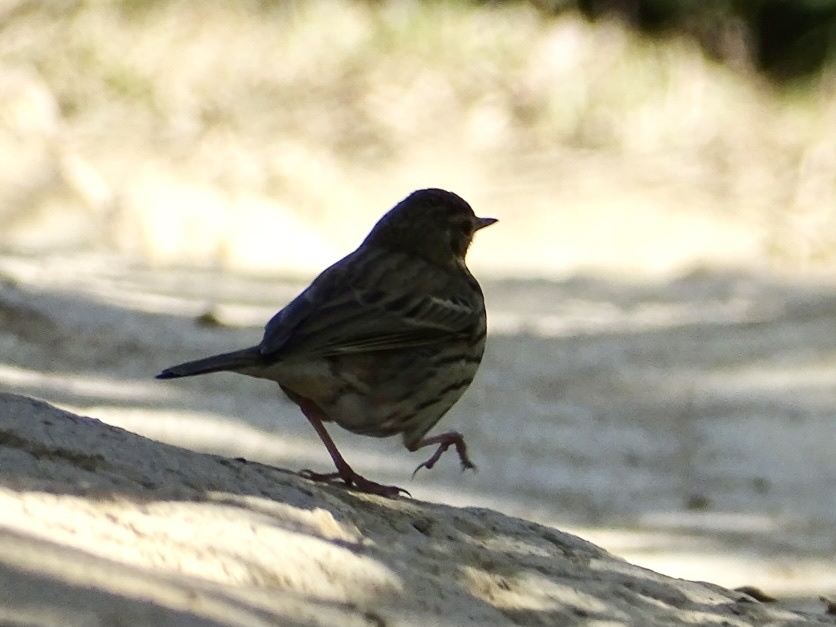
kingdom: Animalia
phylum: Chordata
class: Aves
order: Passeriformes
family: Motacillidae
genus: Anthus
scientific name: Anthus hodgsoni
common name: Olive-backed pipit
